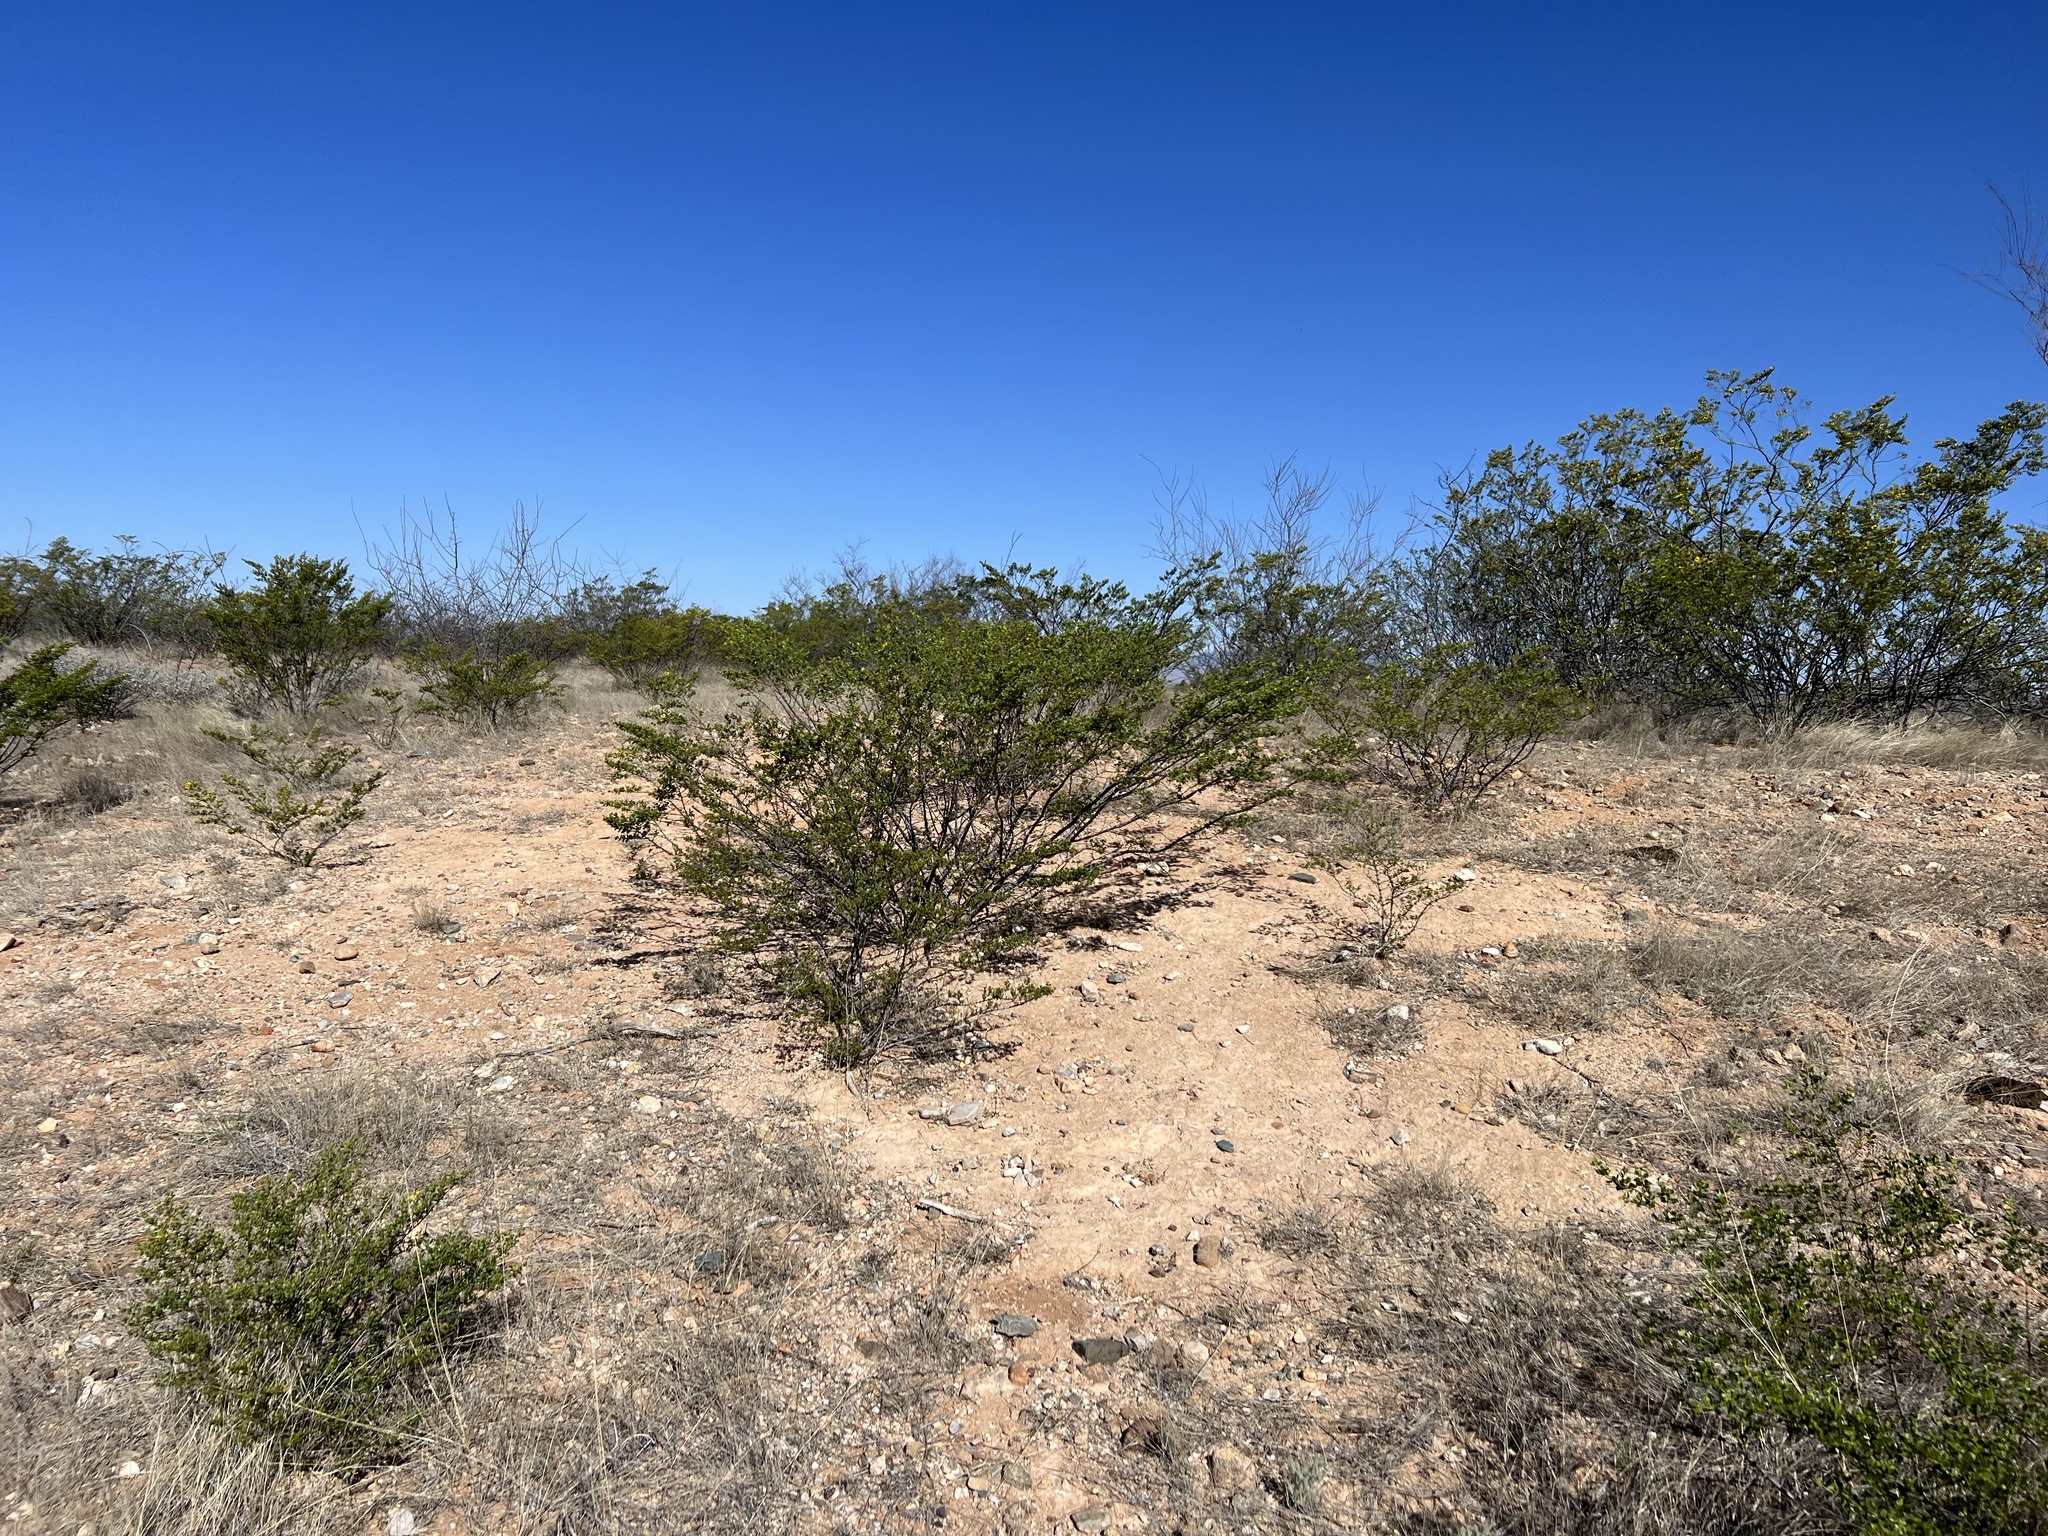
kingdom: Plantae
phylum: Tracheophyta
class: Magnoliopsida
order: Zygophyllales
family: Zygophyllaceae
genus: Larrea
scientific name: Larrea tridentata
